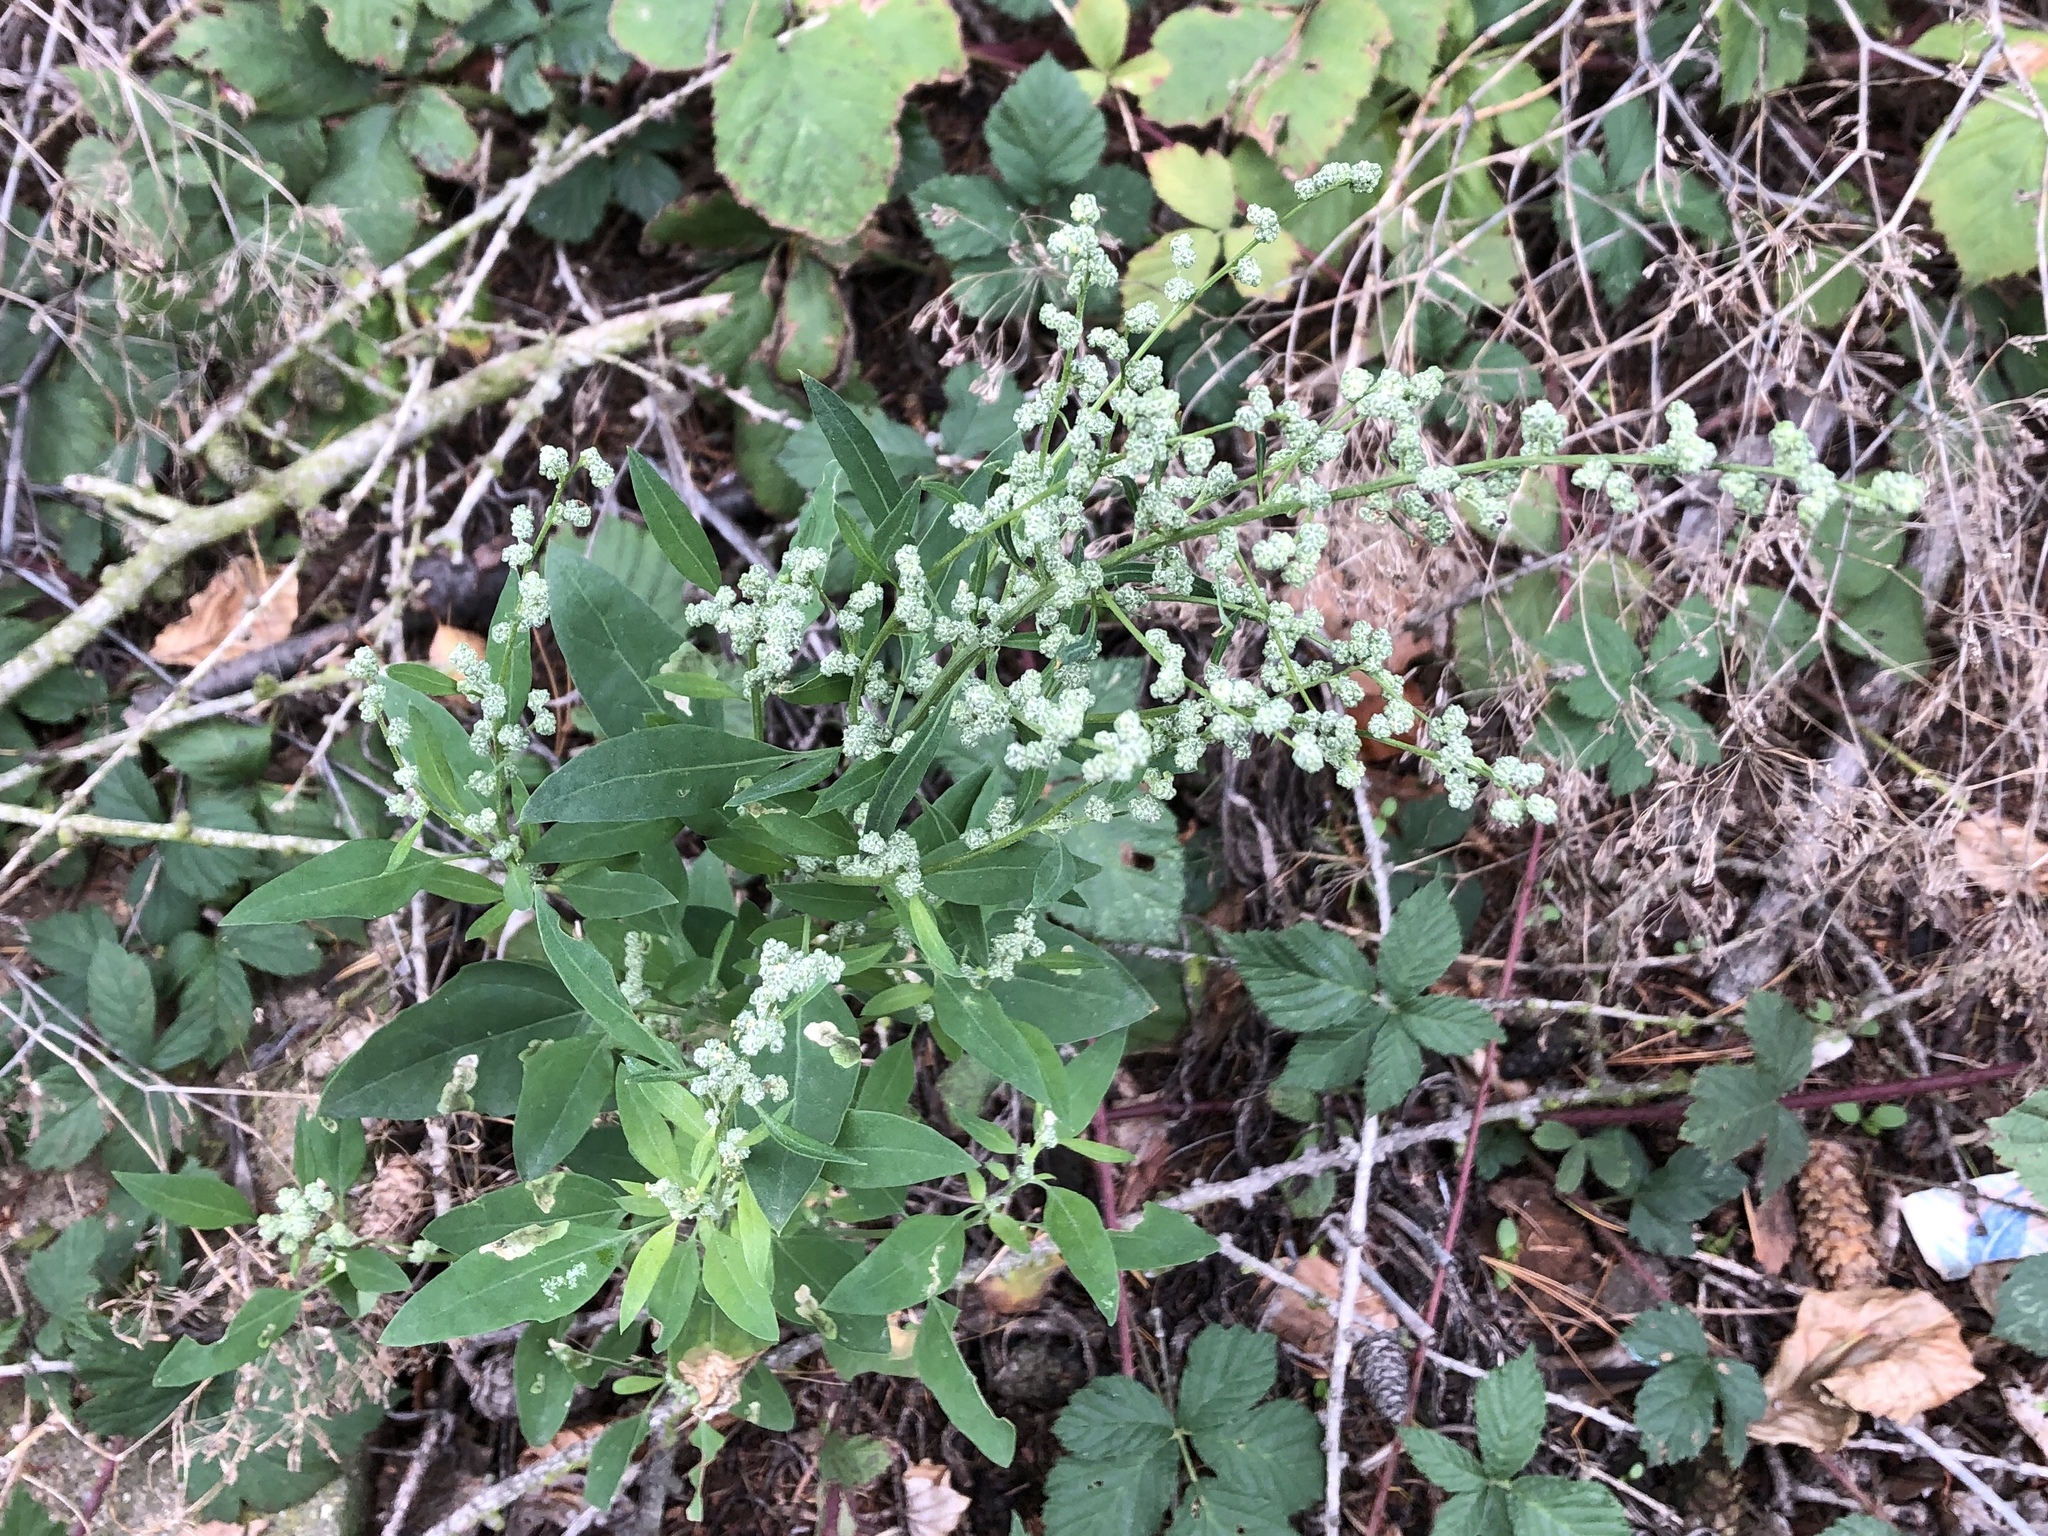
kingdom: Plantae
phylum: Tracheophyta
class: Magnoliopsida
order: Caryophyllales
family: Amaranthaceae
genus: Chenopodium
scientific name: Chenopodium album
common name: Fat-hen
